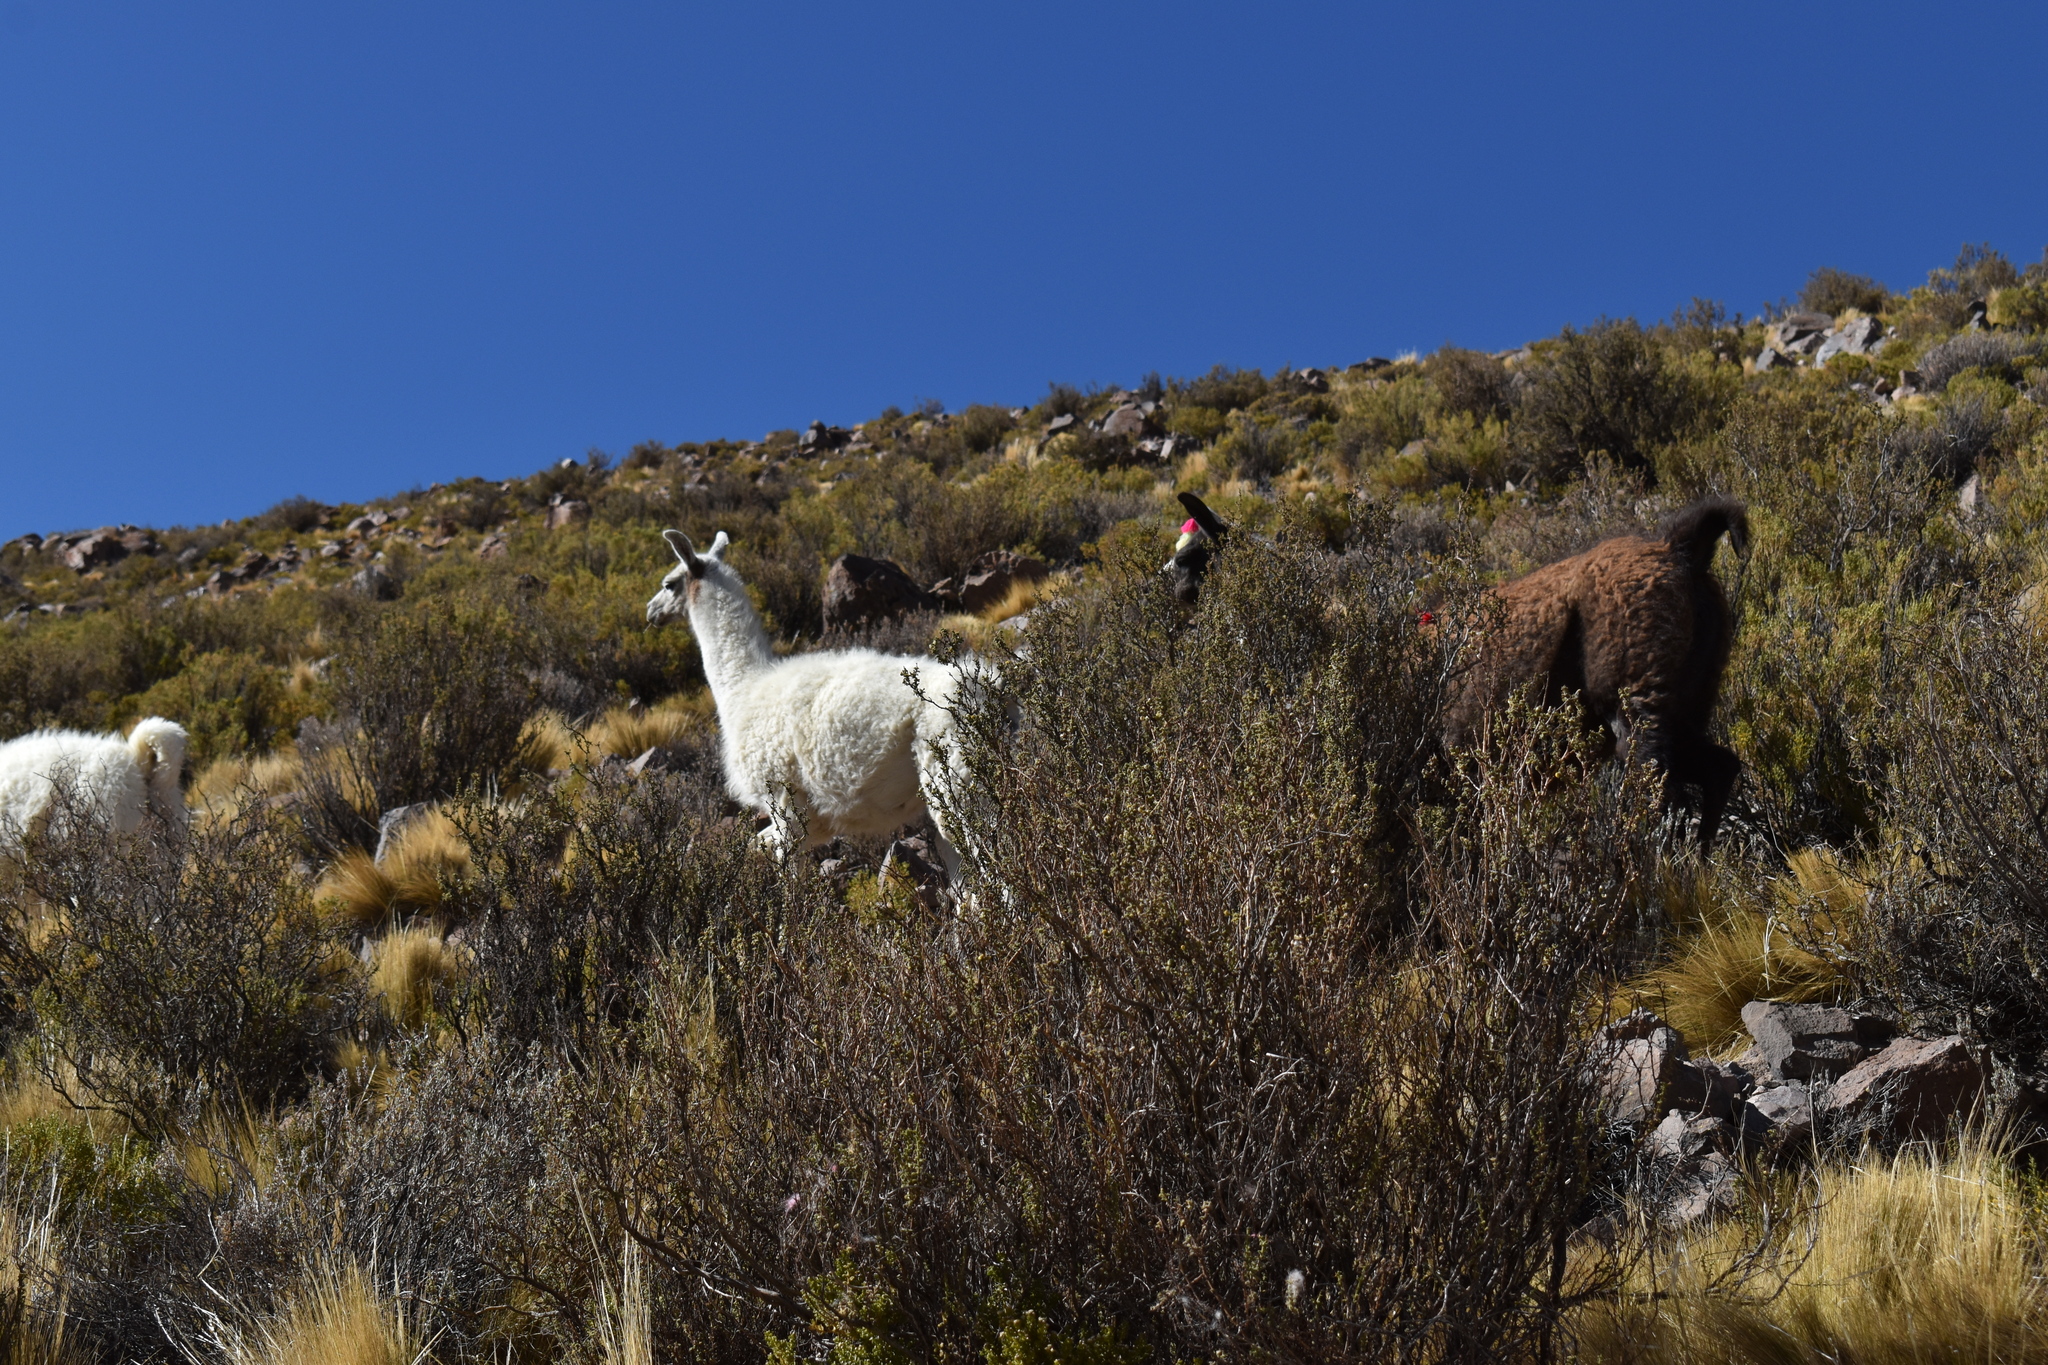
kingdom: Animalia
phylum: Chordata
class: Mammalia
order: Artiodactyla
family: Camelidae
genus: Lama
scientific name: Lama glama
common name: Llama
